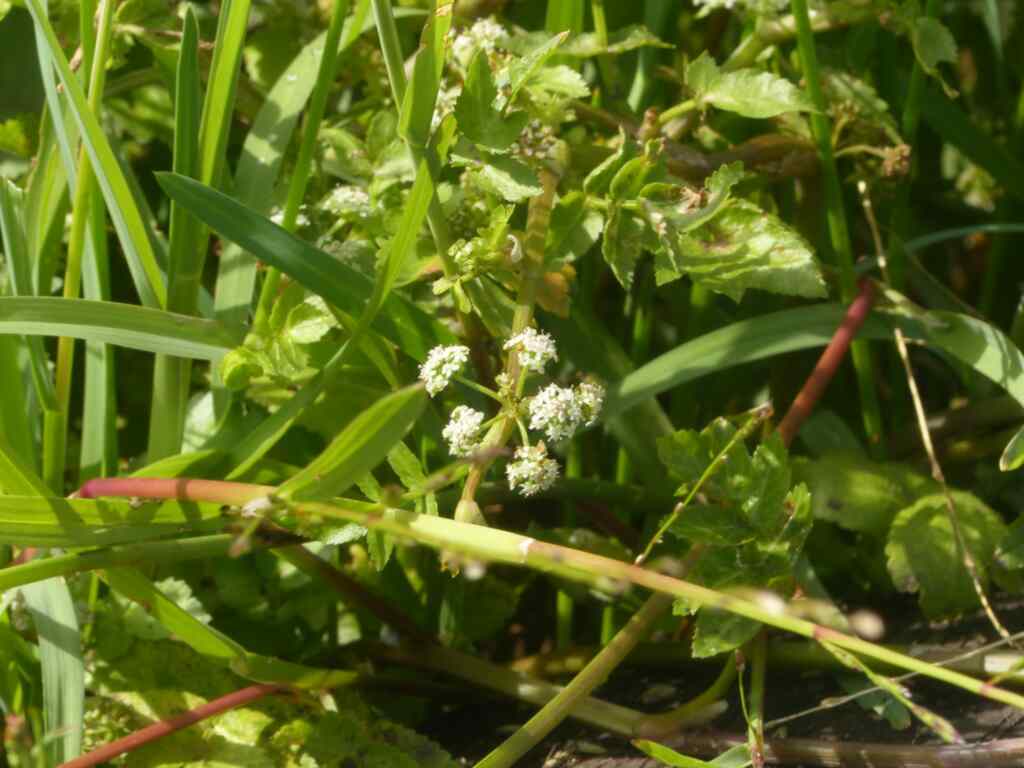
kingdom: Plantae
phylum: Tracheophyta
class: Magnoliopsida
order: Apiales
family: Apiaceae
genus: Helosciadium
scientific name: Helosciadium nodiflorum
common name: Fool's-watercress
